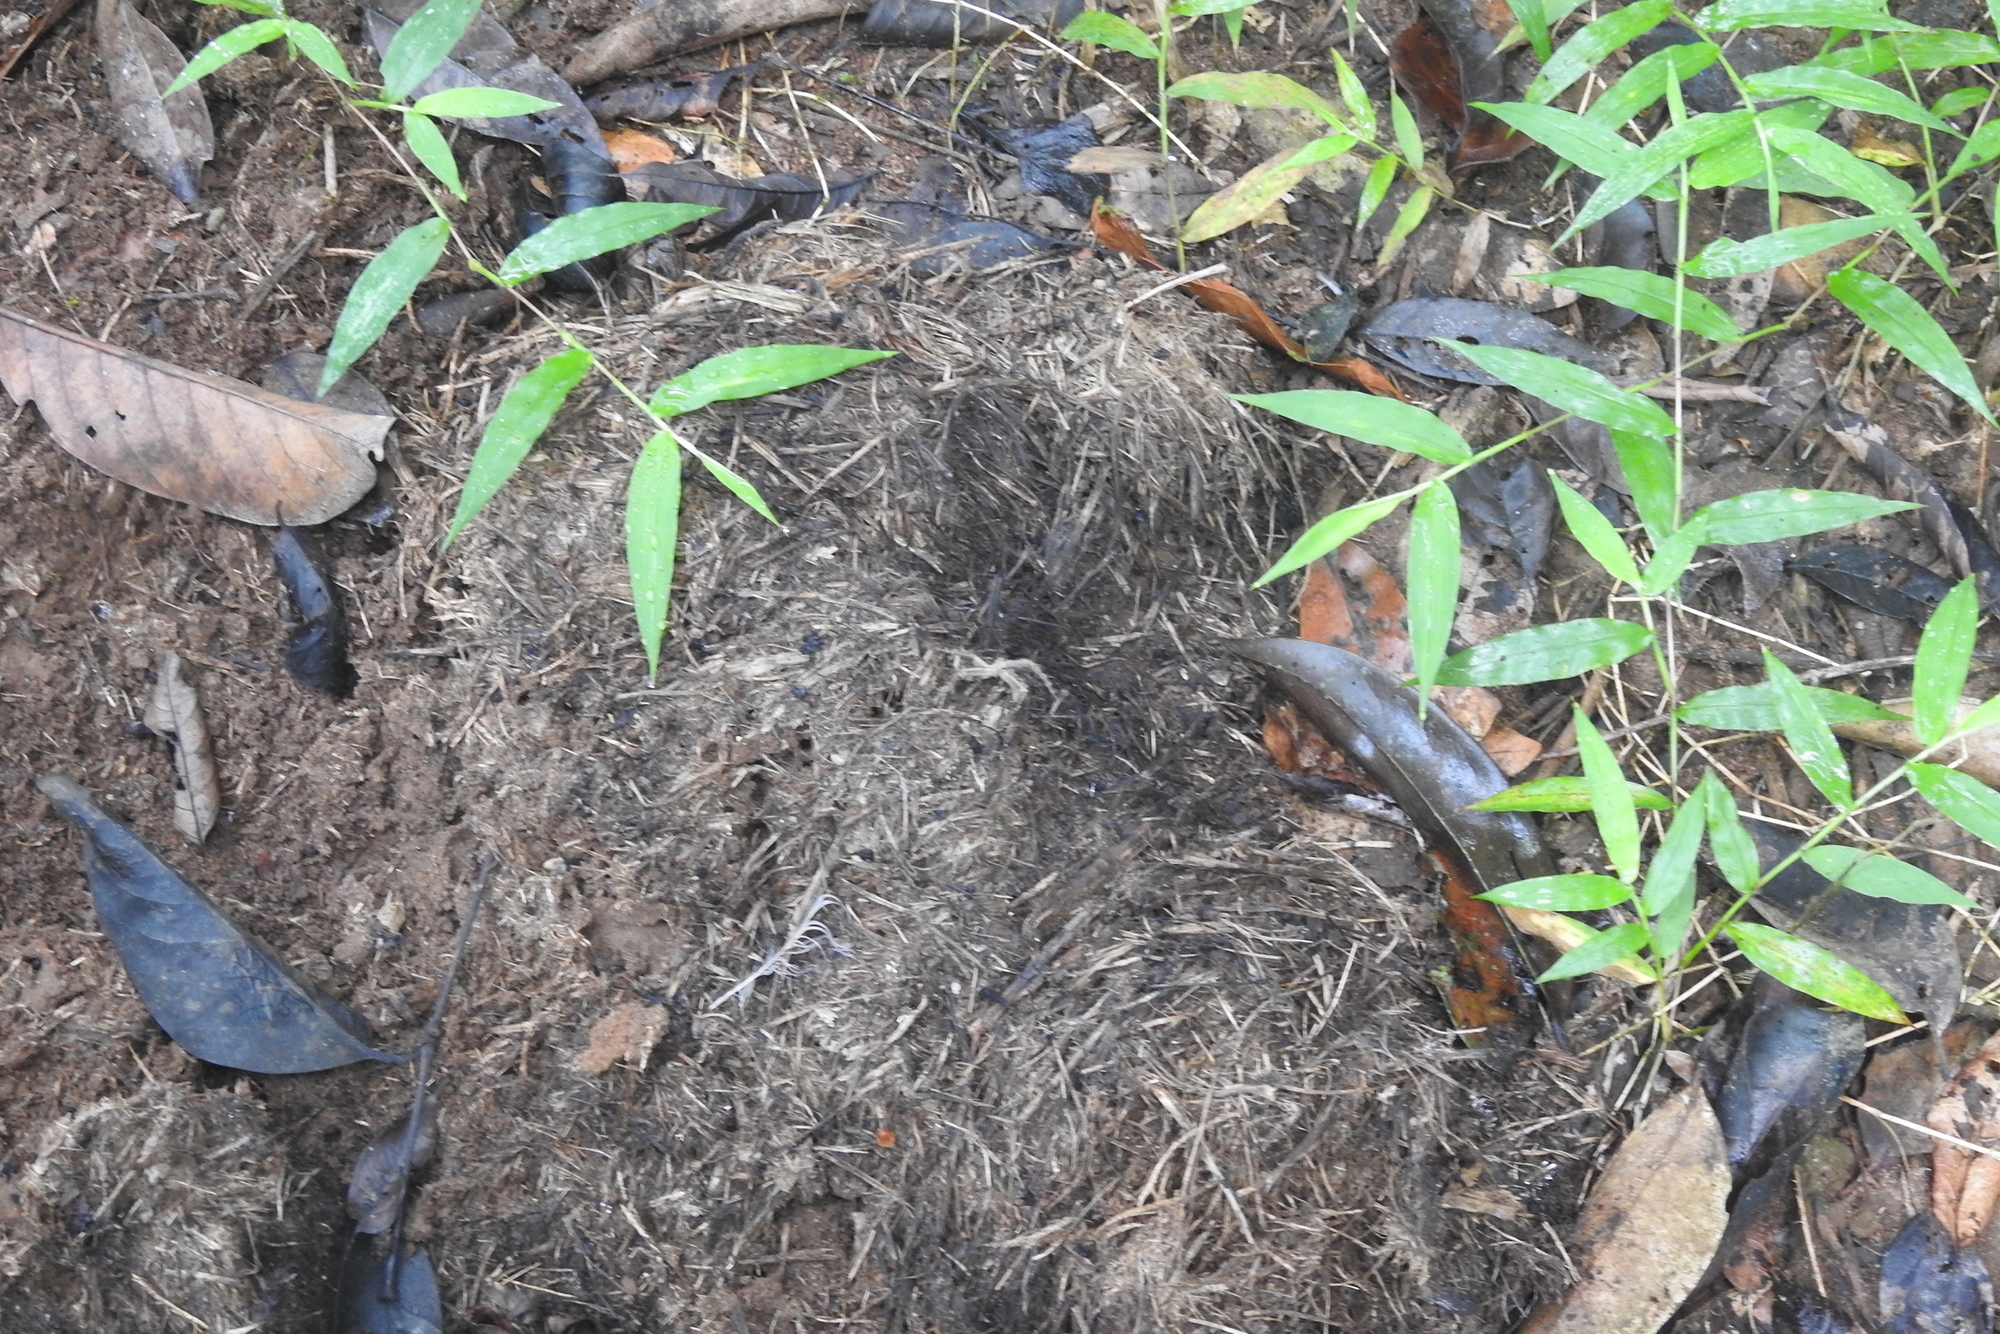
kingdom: Animalia
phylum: Chordata
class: Mammalia
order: Proboscidea
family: Elephantidae
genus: Elephas
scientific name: Elephas maximus
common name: Asian elephant
